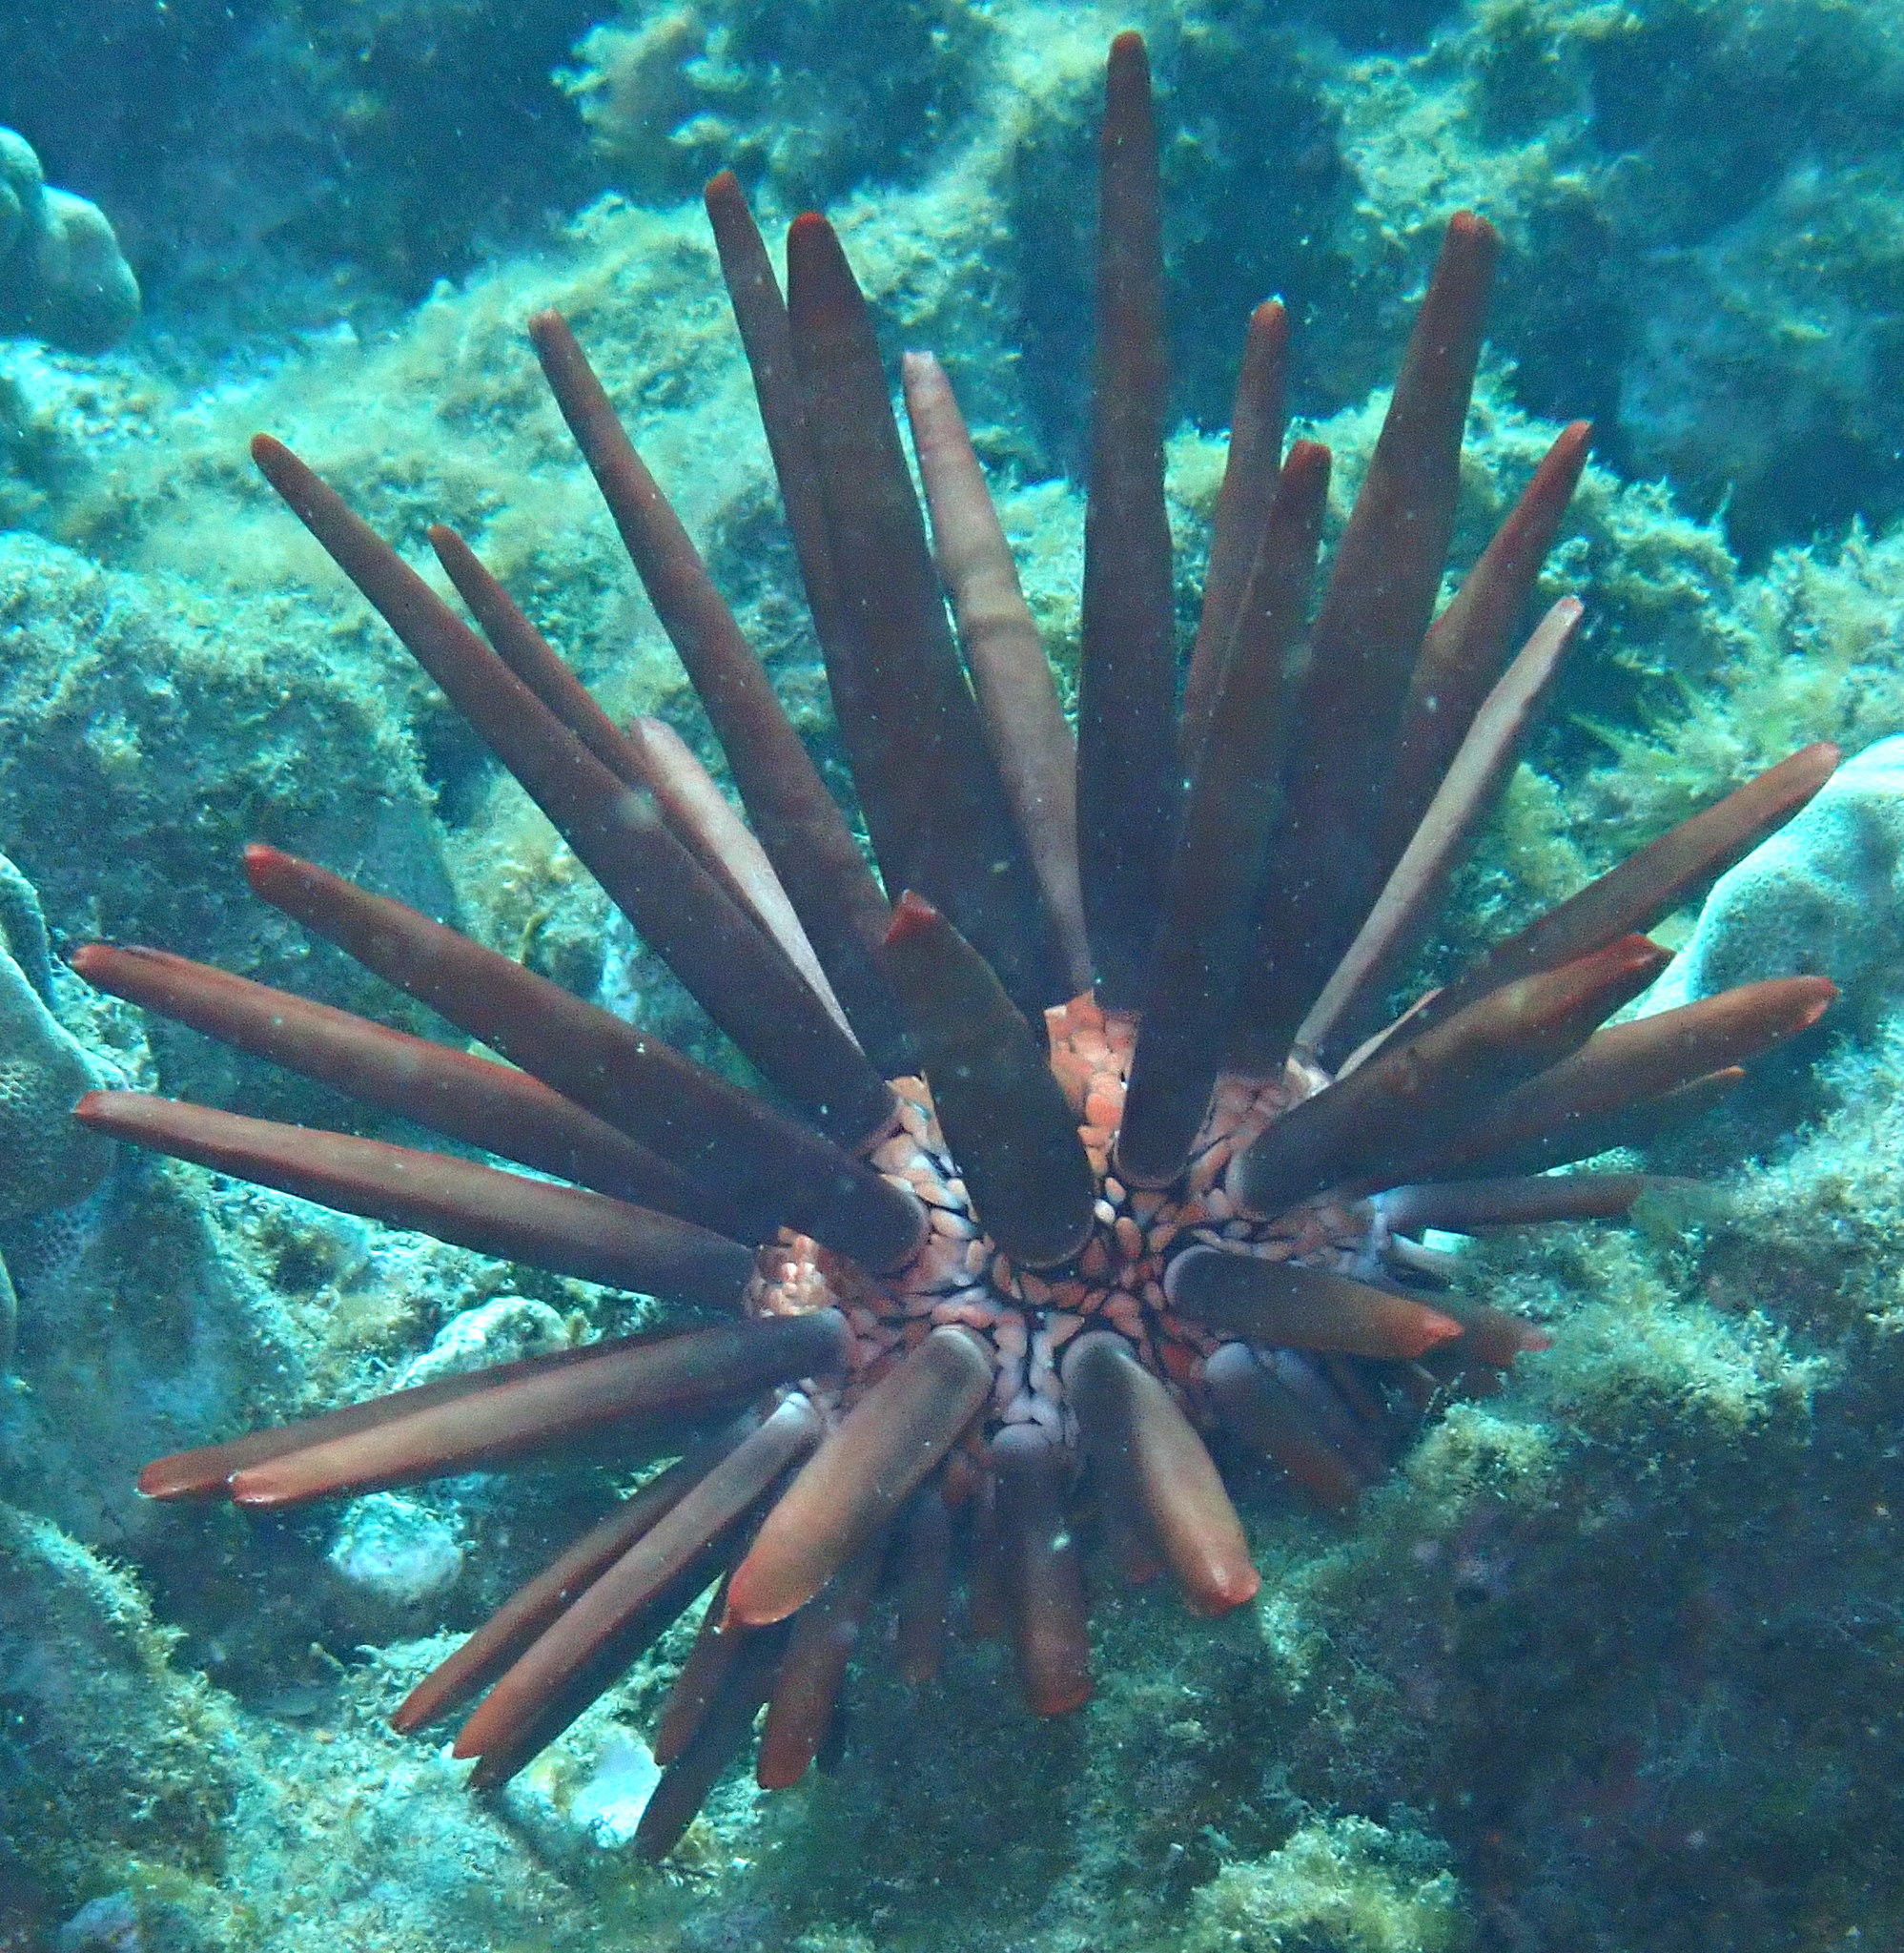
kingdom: Animalia
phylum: Echinodermata
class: Echinoidea
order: Camarodonta
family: Echinometridae
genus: Heterocentrotus
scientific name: Heterocentrotus mamillatus
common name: Slate pencil urchin
